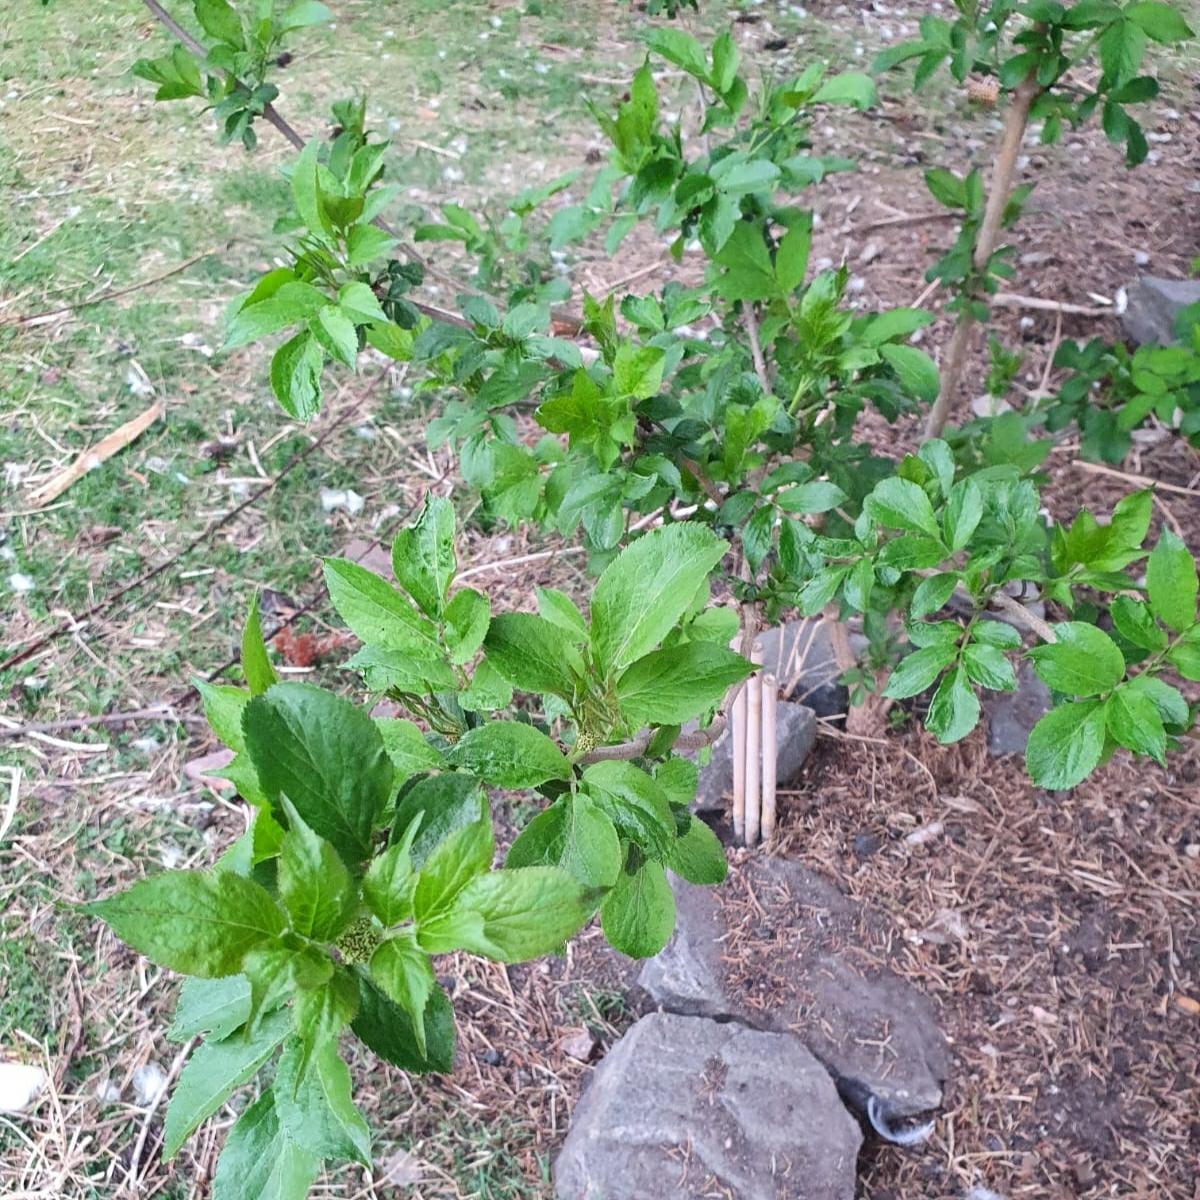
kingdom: Plantae
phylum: Tracheophyta
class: Magnoliopsida
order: Dipsacales
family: Viburnaceae
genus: Sambucus
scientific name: Sambucus nigra
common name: Elder
